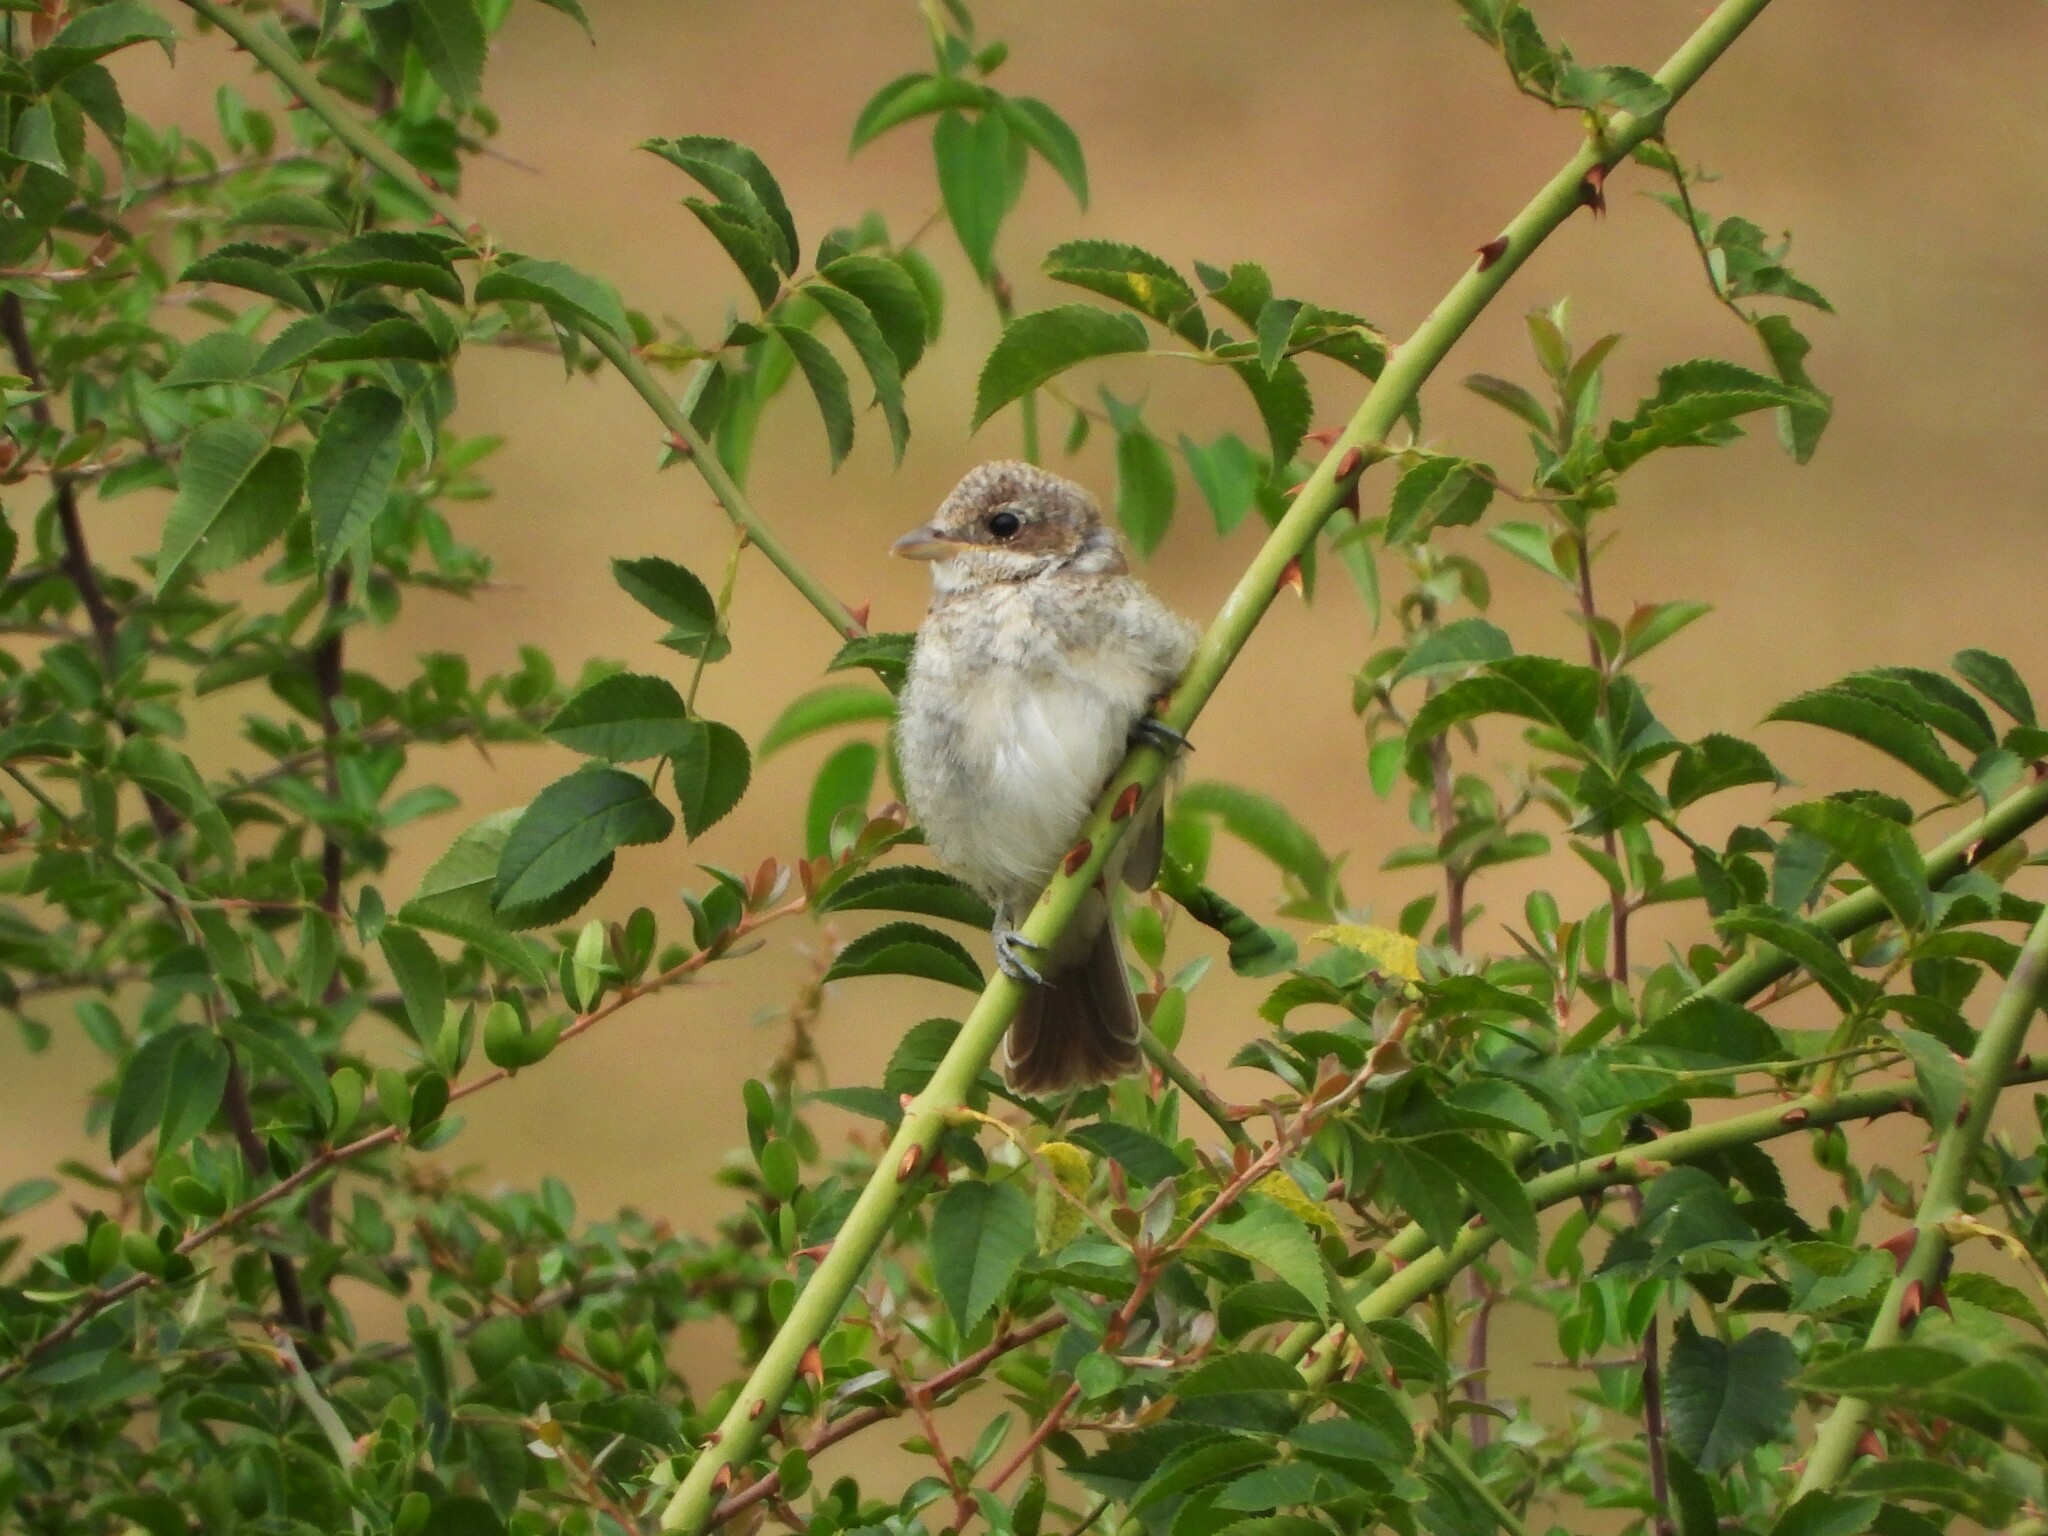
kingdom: Animalia
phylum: Chordata
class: Aves
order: Passeriformes
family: Laniidae
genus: Lanius
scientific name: Lanius collurio
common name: Red-backed shrike
